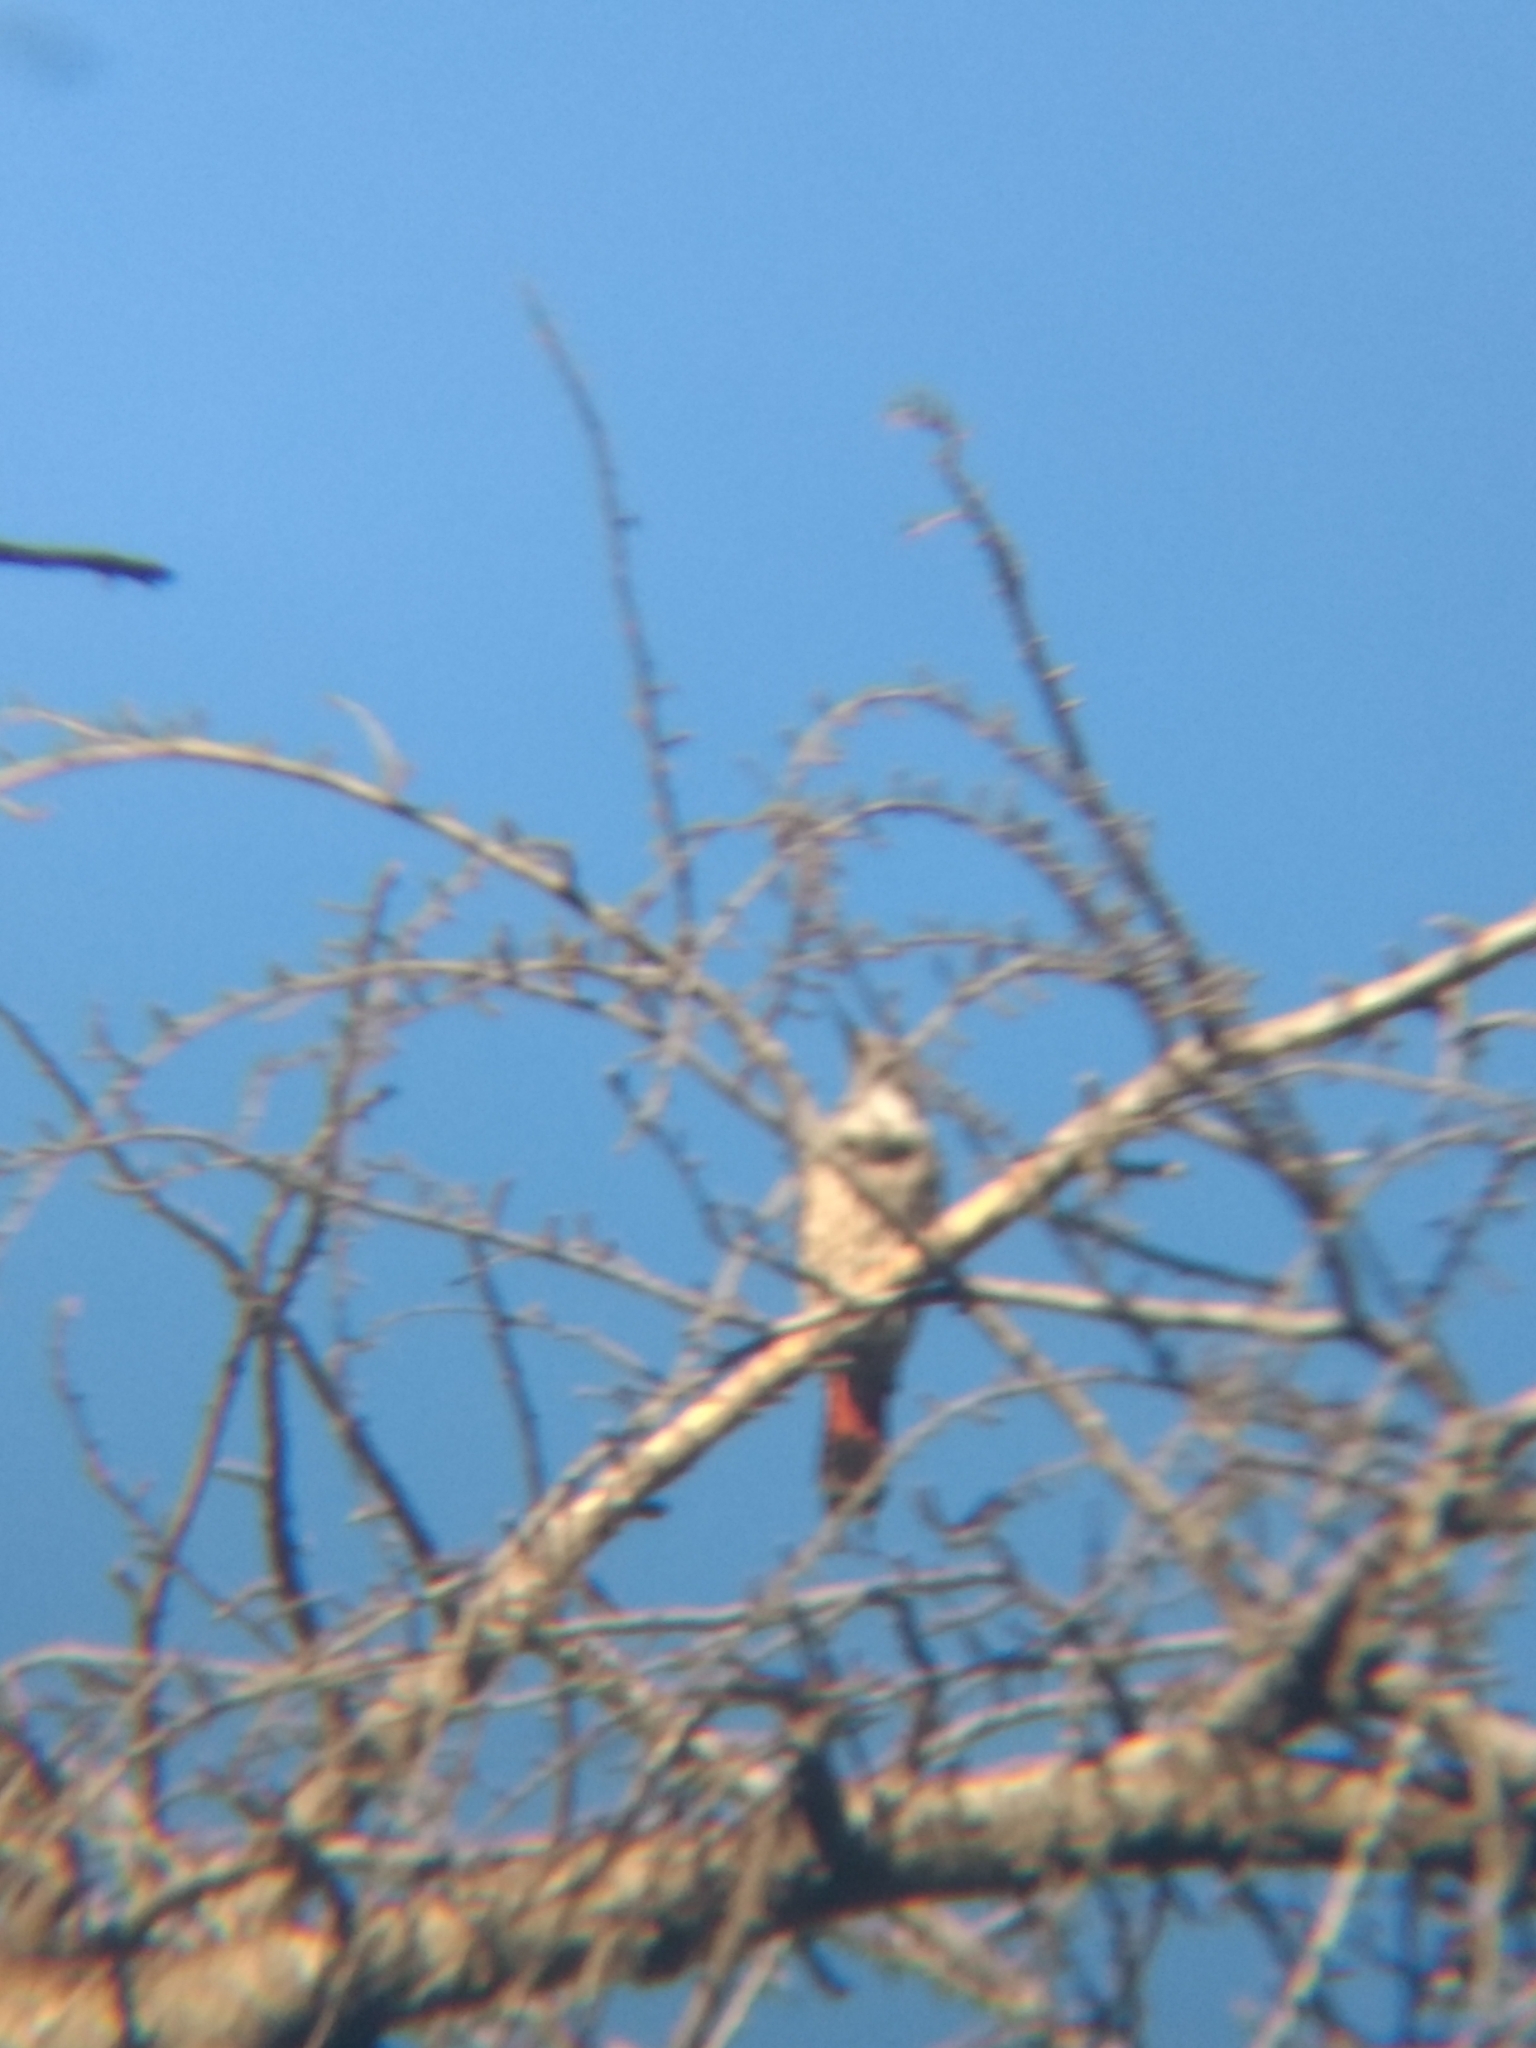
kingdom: Animalia
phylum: Chordata
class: Aves
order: Piciformes
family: Picidae
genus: Colaptes
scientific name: Colaptes auratus
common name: Northern flicker
